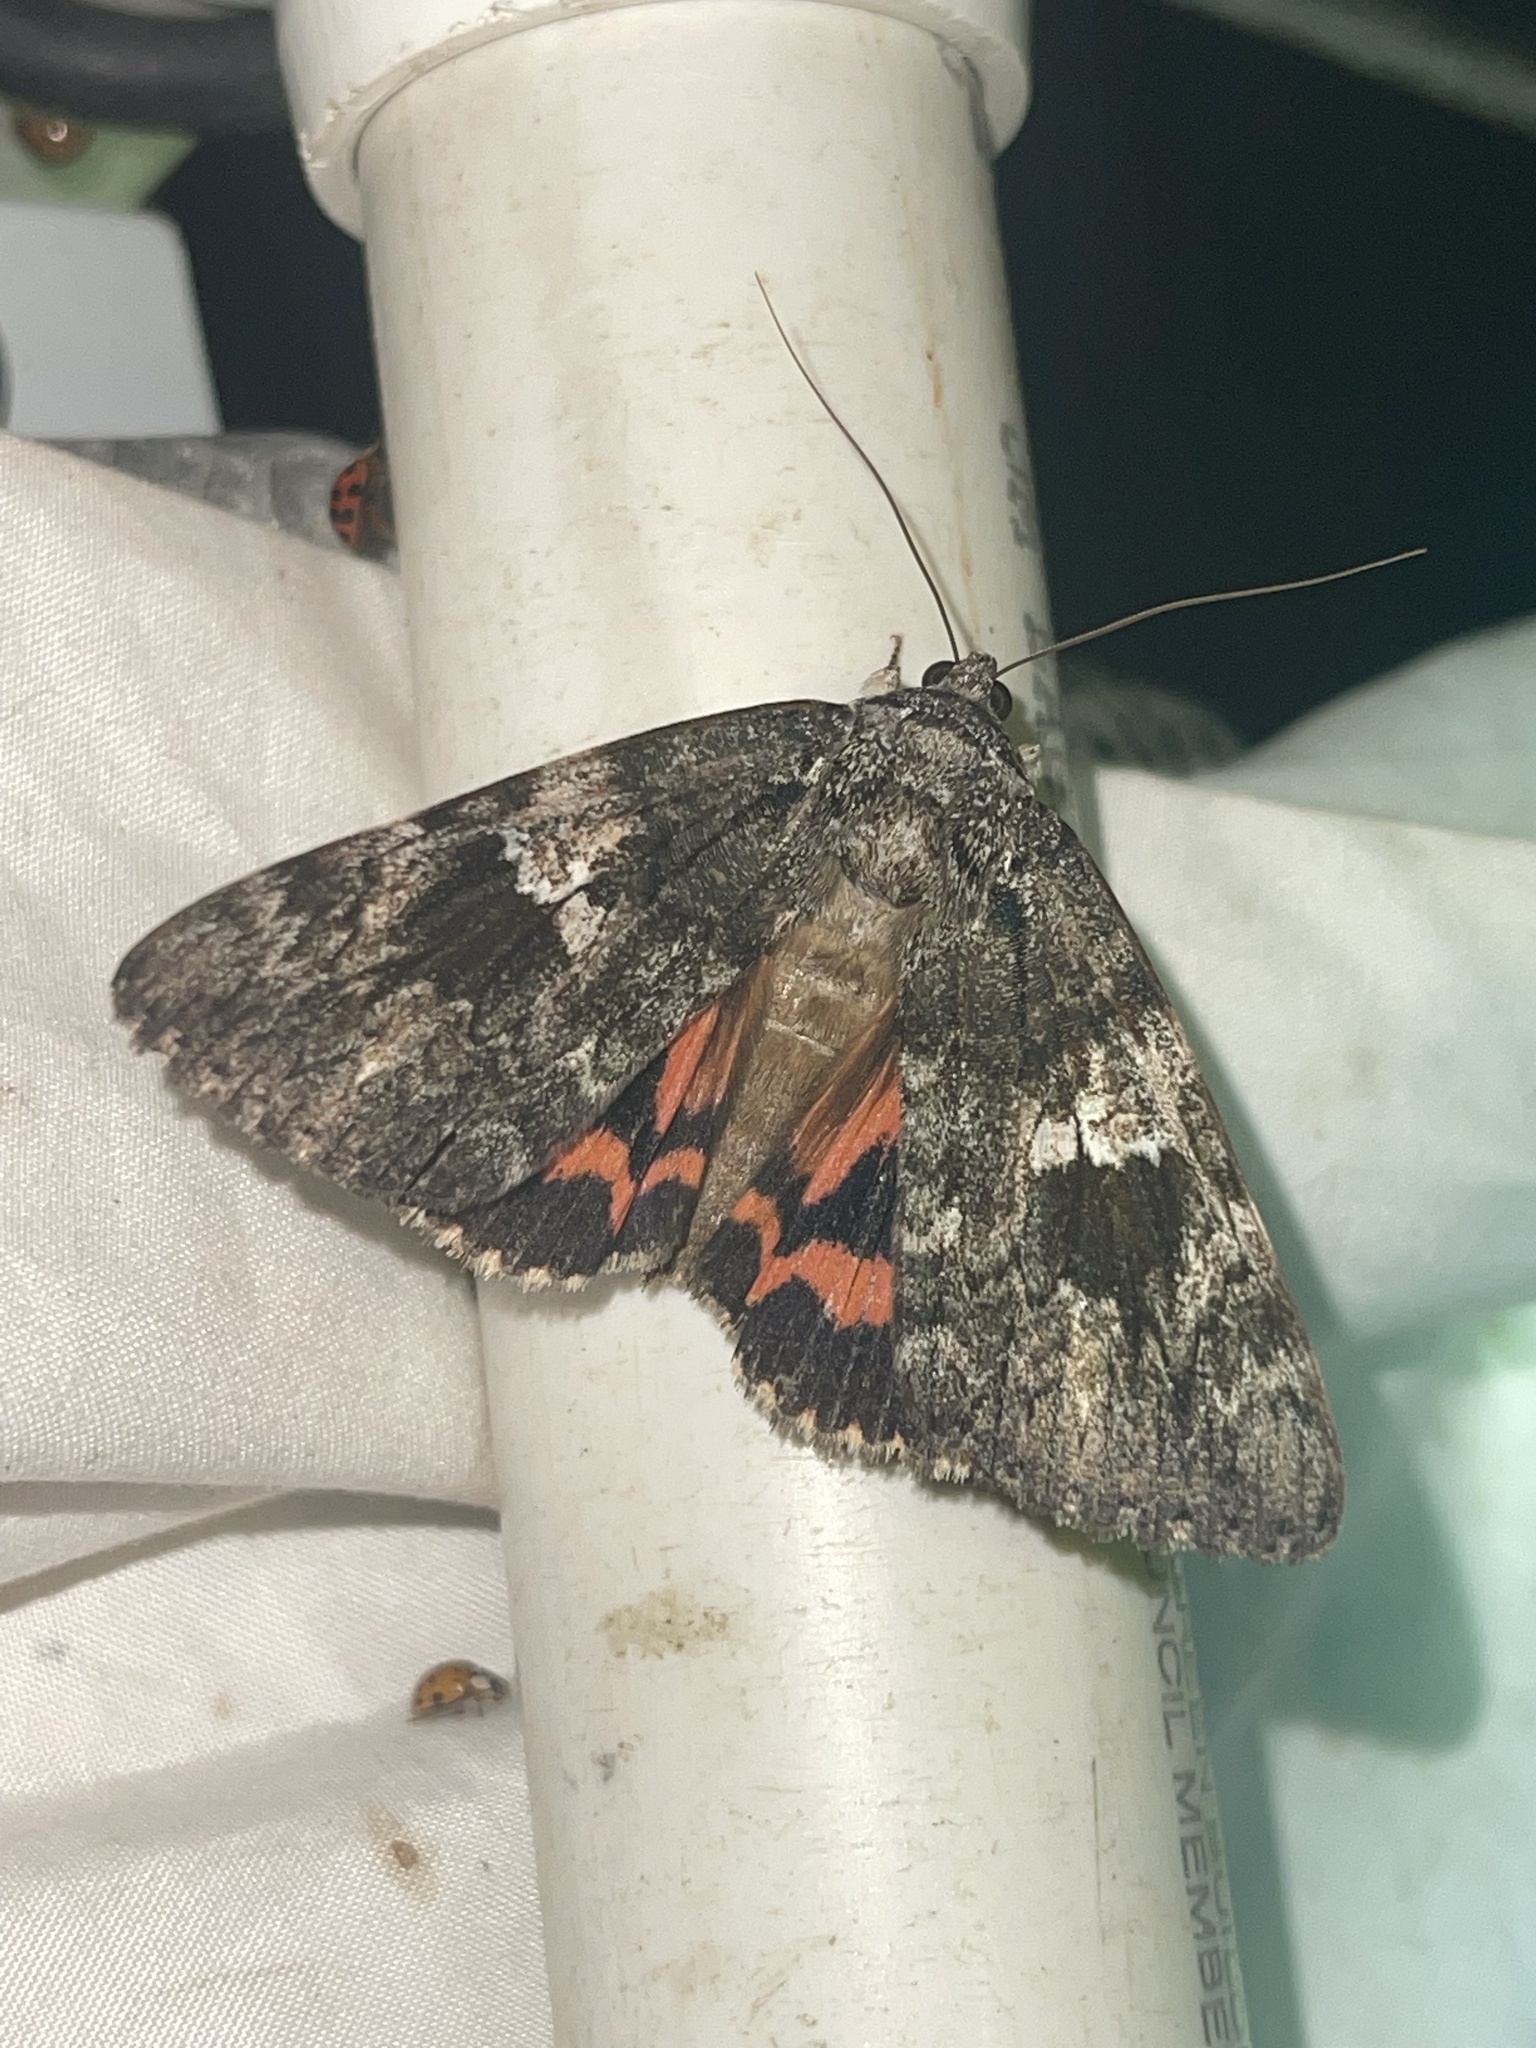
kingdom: Animalia
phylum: Arthropoda
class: Insecta
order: Lepidoptera
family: Erebidae
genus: Catocala
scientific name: Catocala ilia
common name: Ilia underwing
